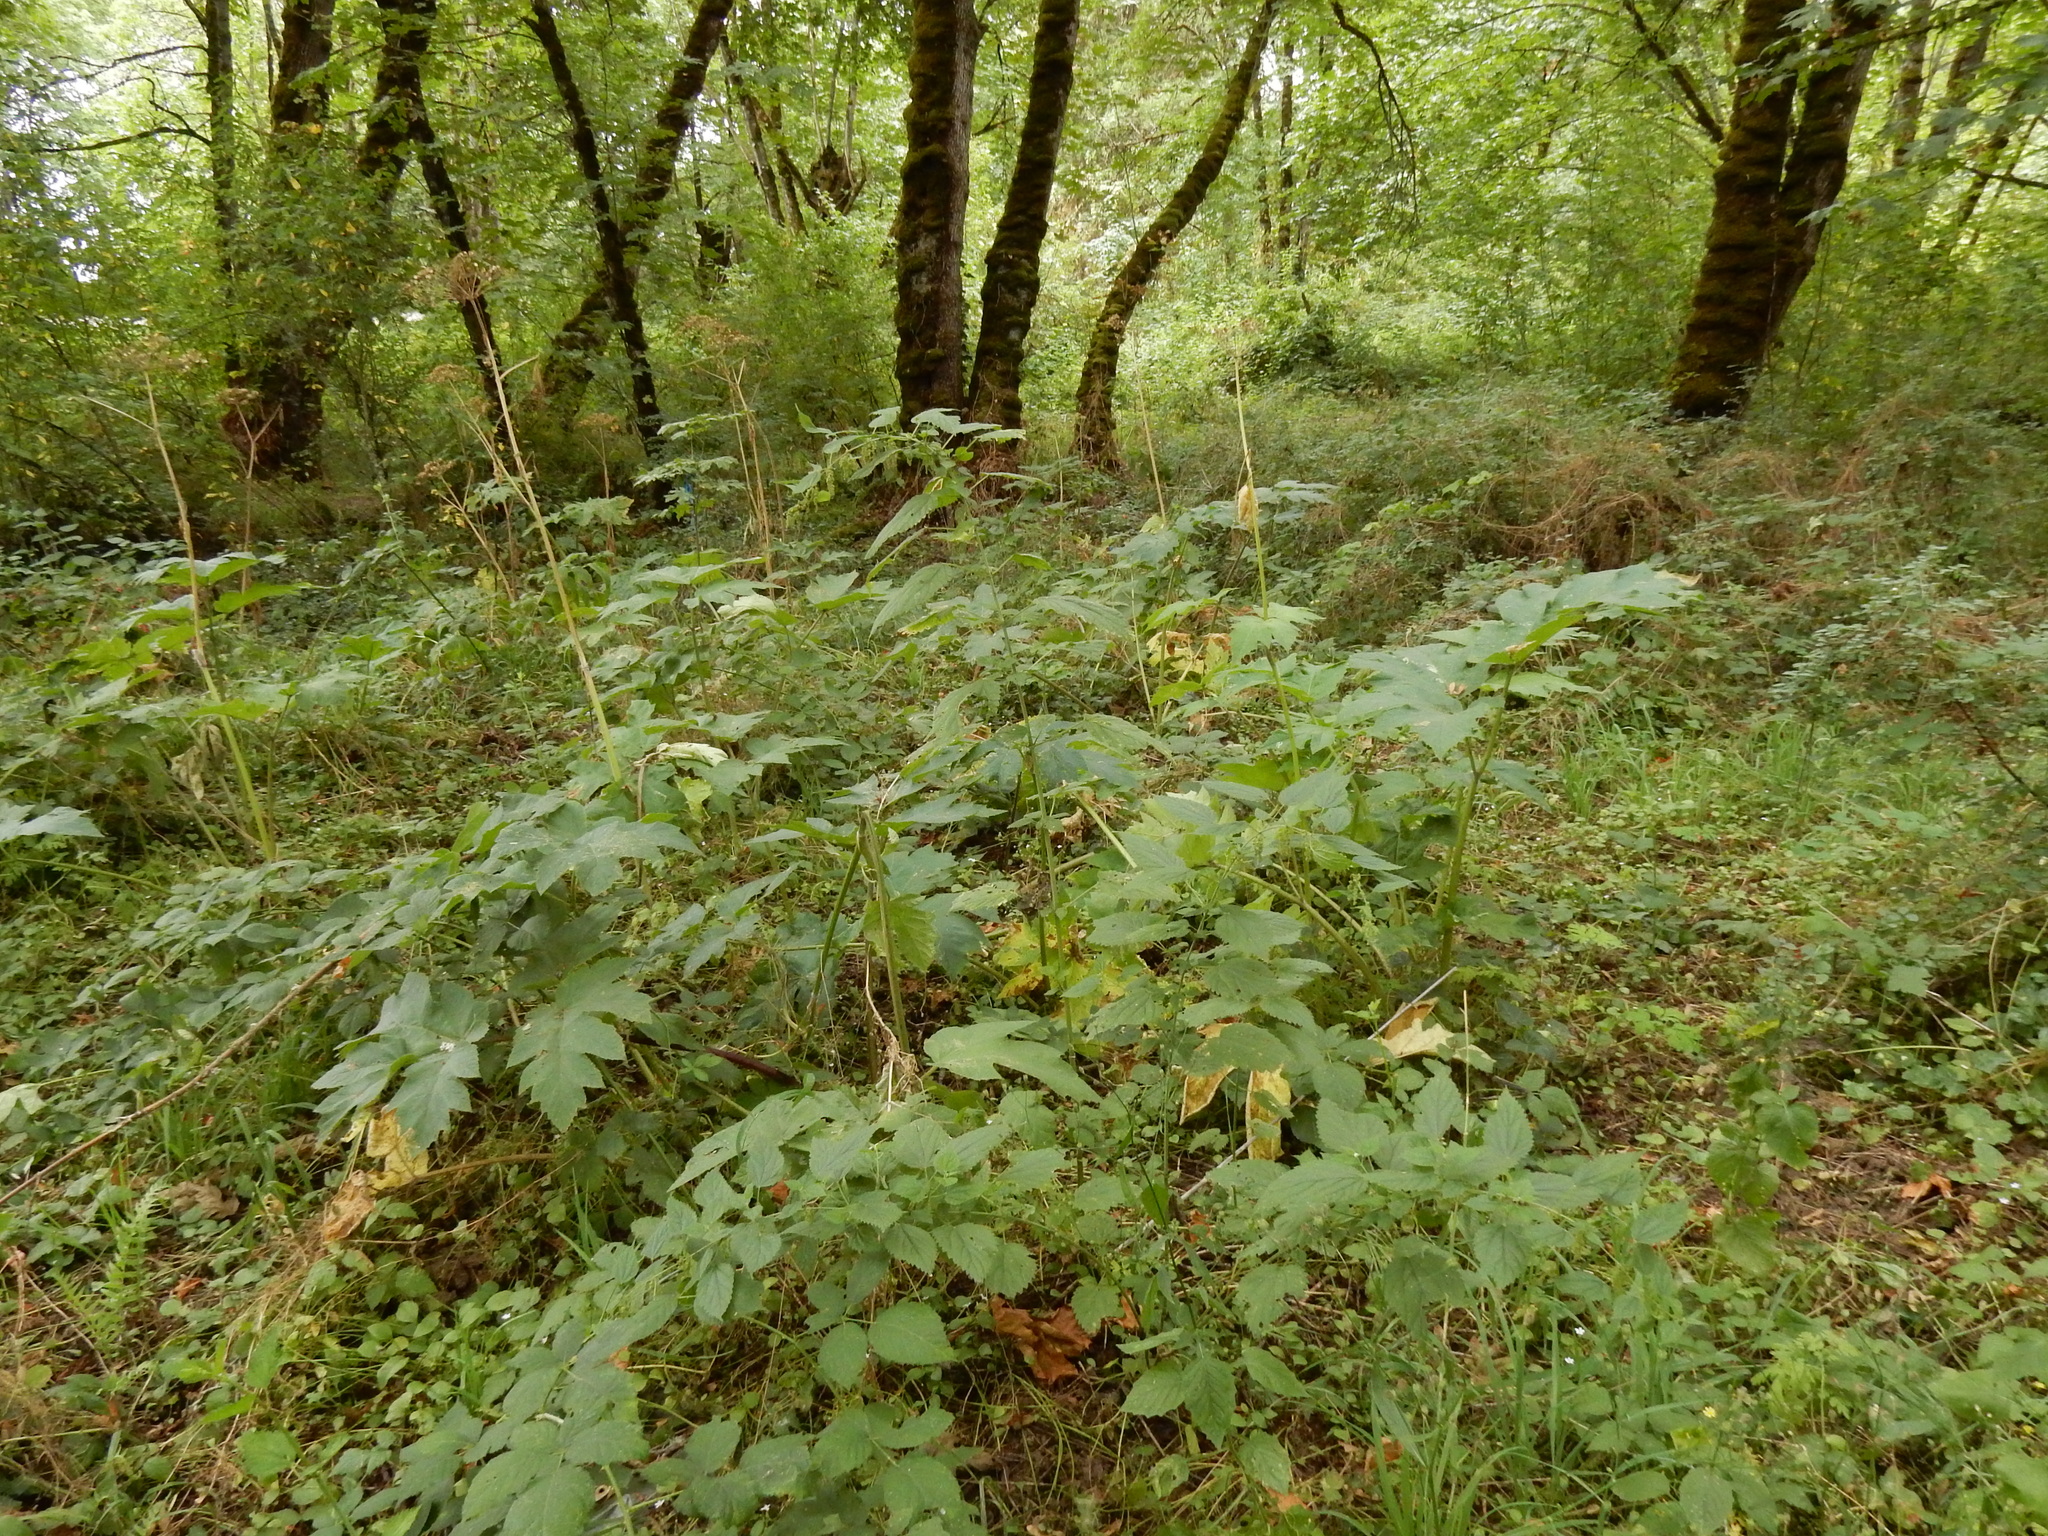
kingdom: Plantae
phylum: Tracheophyta
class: Magnoliopsida
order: Apiales
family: Apiaceae
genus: Heracleum
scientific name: Heracleum maximum
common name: American cow parsnip
